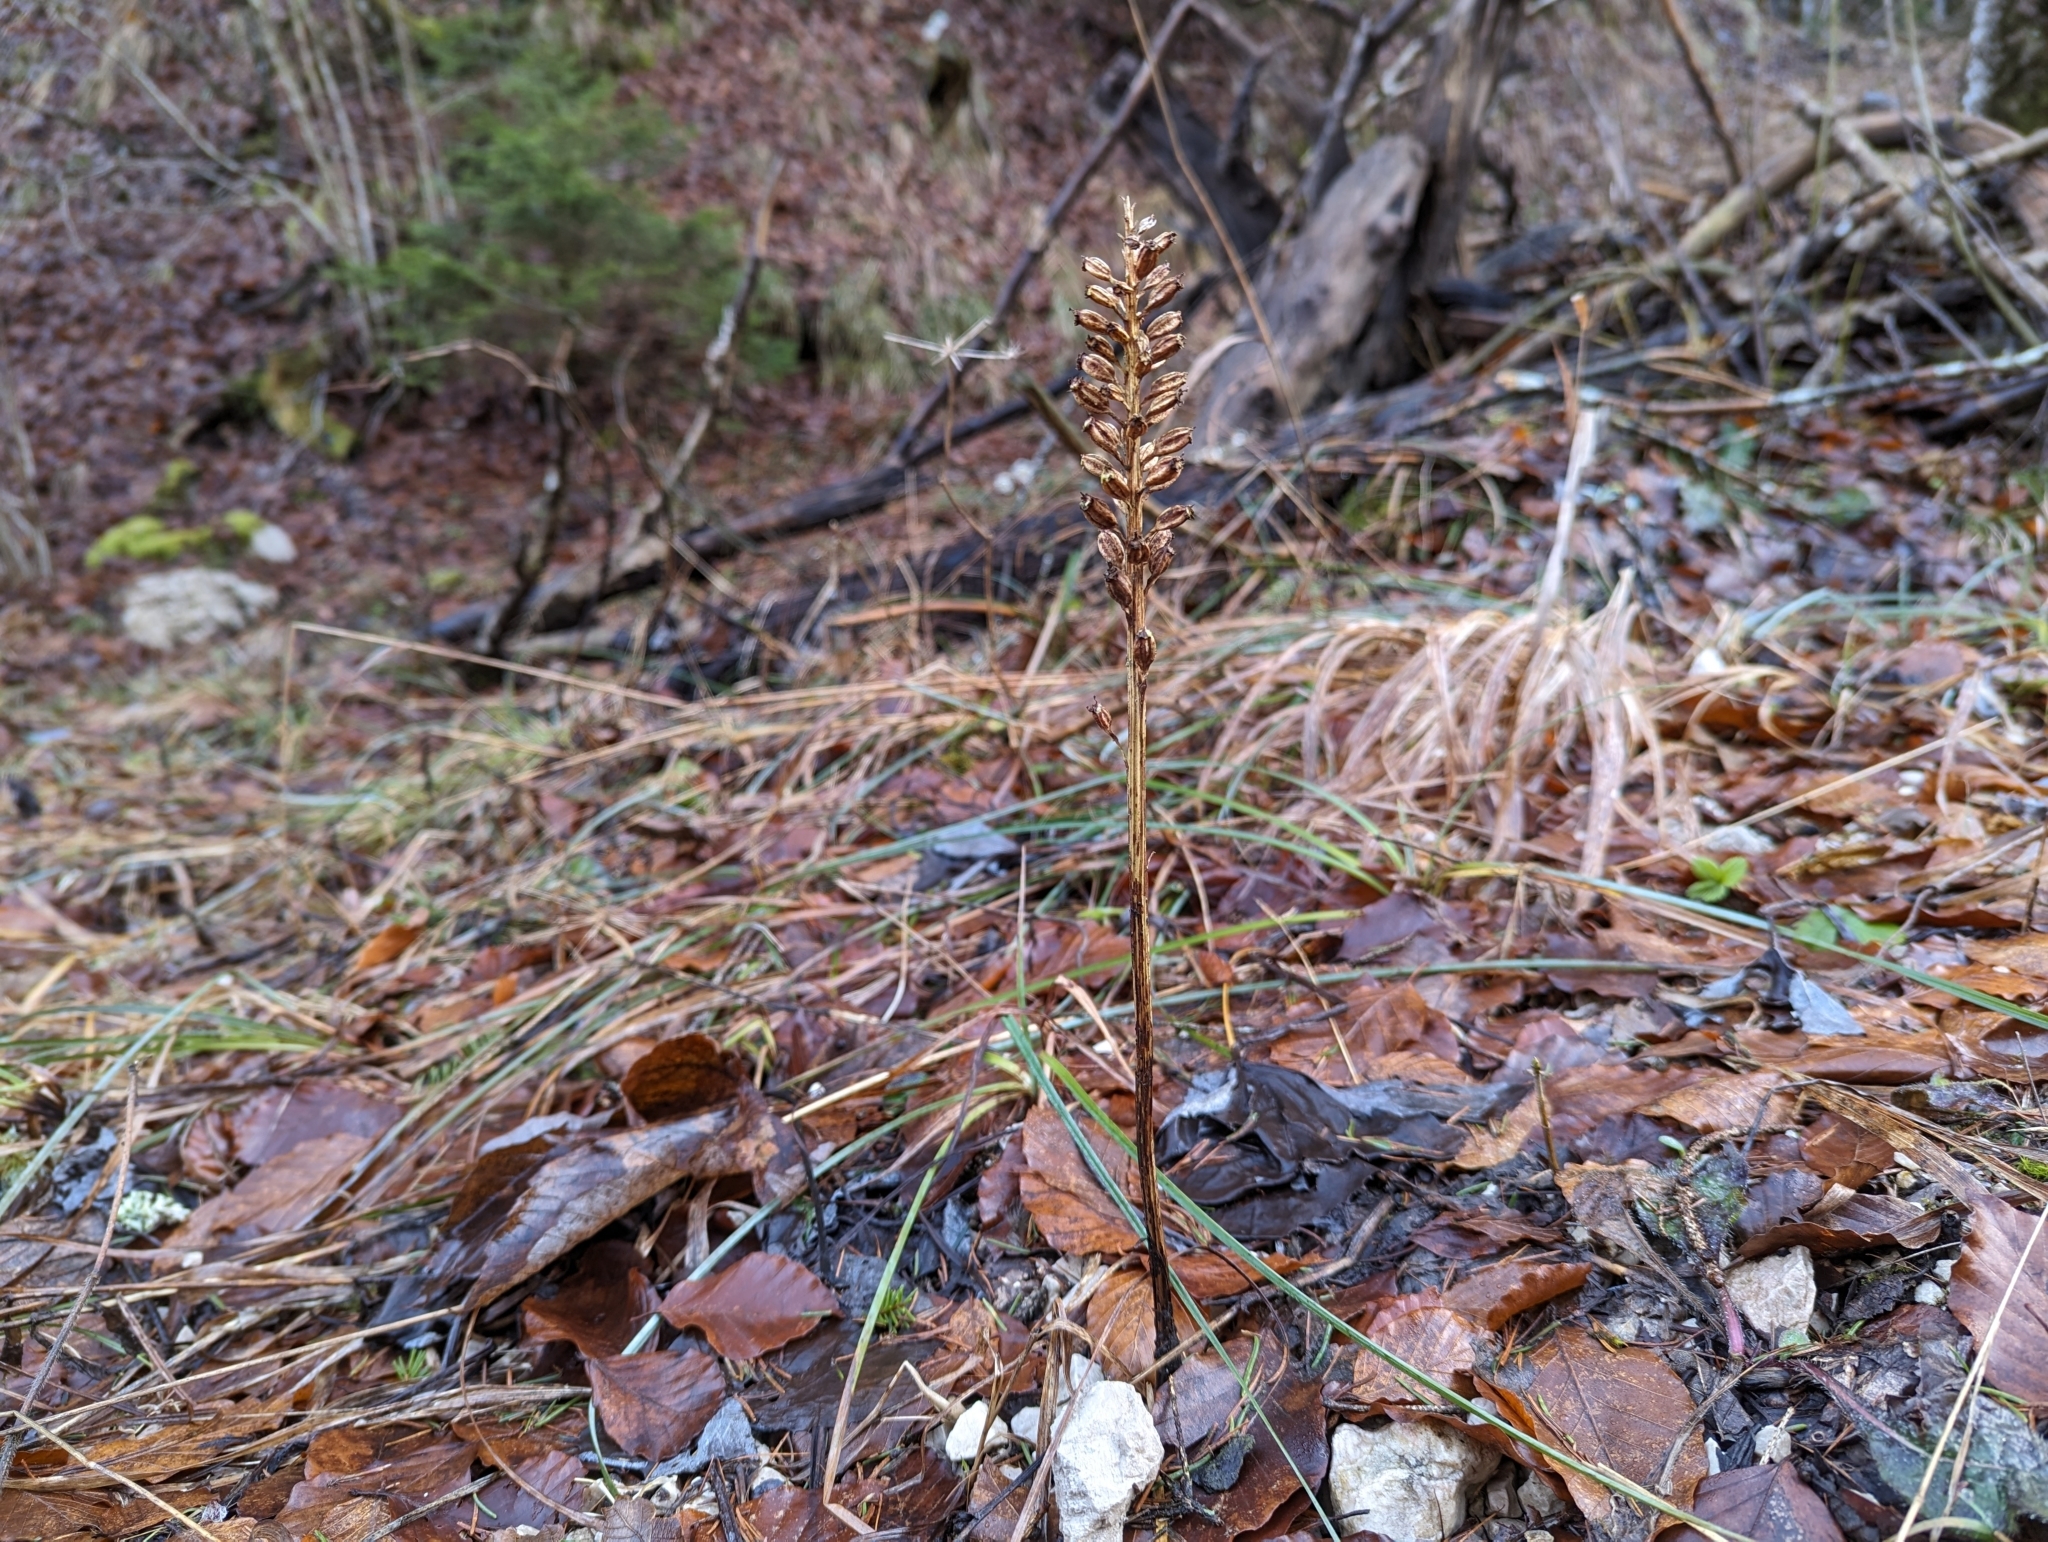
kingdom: Plantae
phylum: Tracheophyta
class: Liliopsida
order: Asparagales
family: Orchidaceae
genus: Neottia
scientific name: Neottia nidus-avis
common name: Bird's-nest orchid
